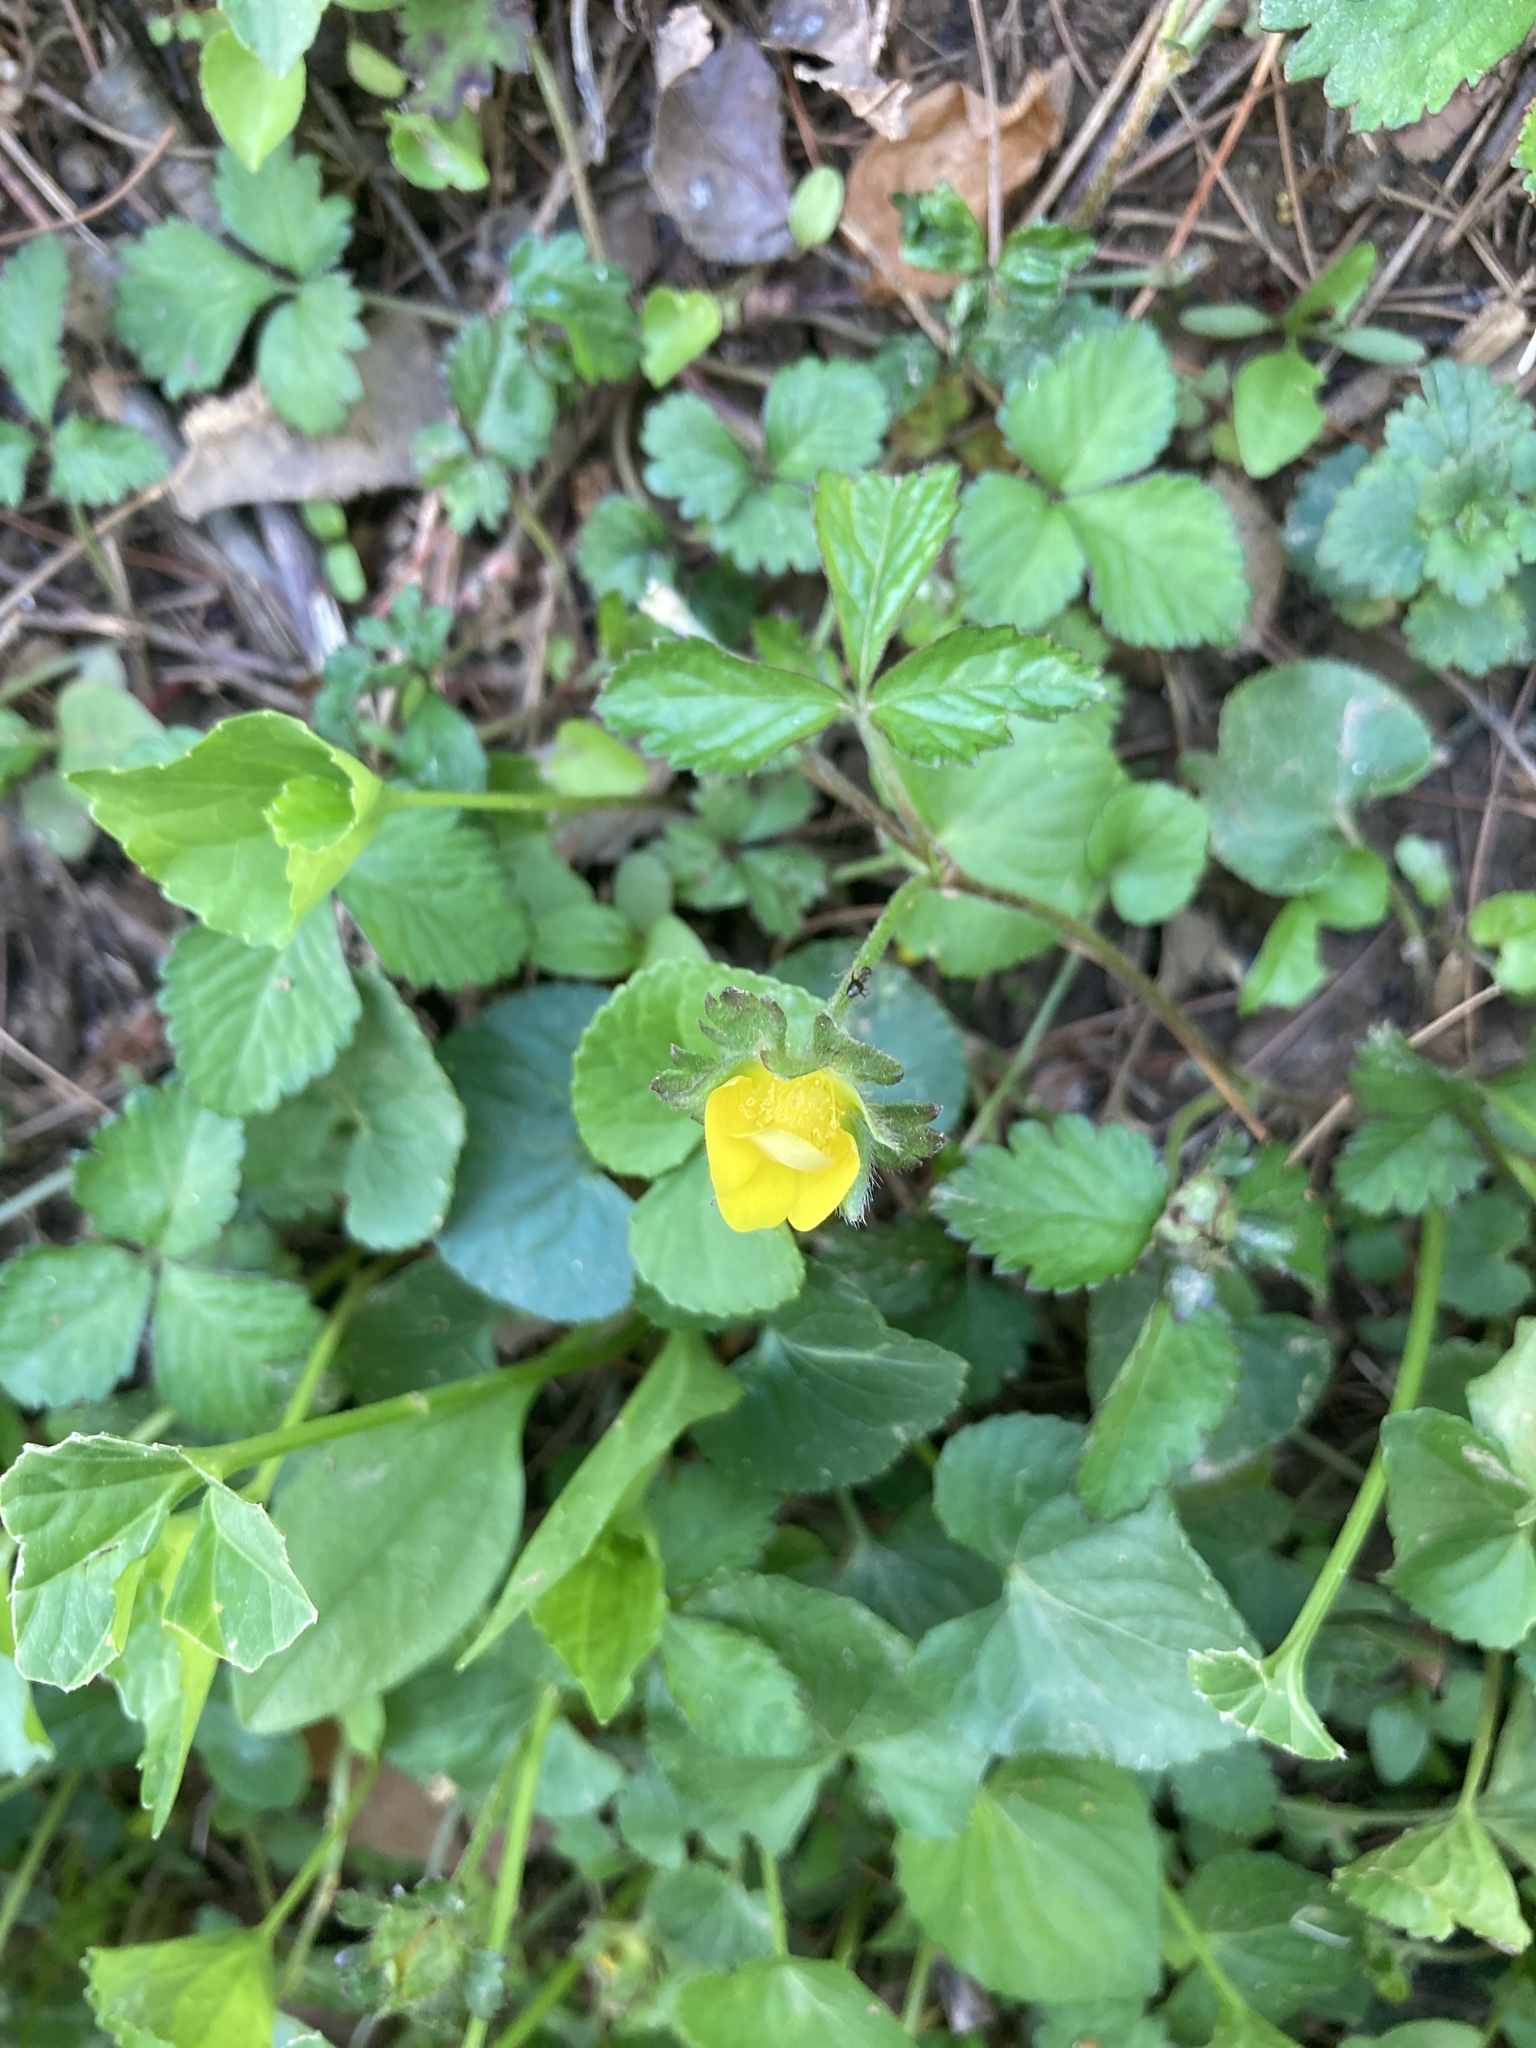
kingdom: Plantae
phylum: Tracheophyta
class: Magnoliopsida
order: Rosales
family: Rosaceae
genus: Potentilla
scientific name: Potentilla indica
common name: Yellow-flowered strawberry
